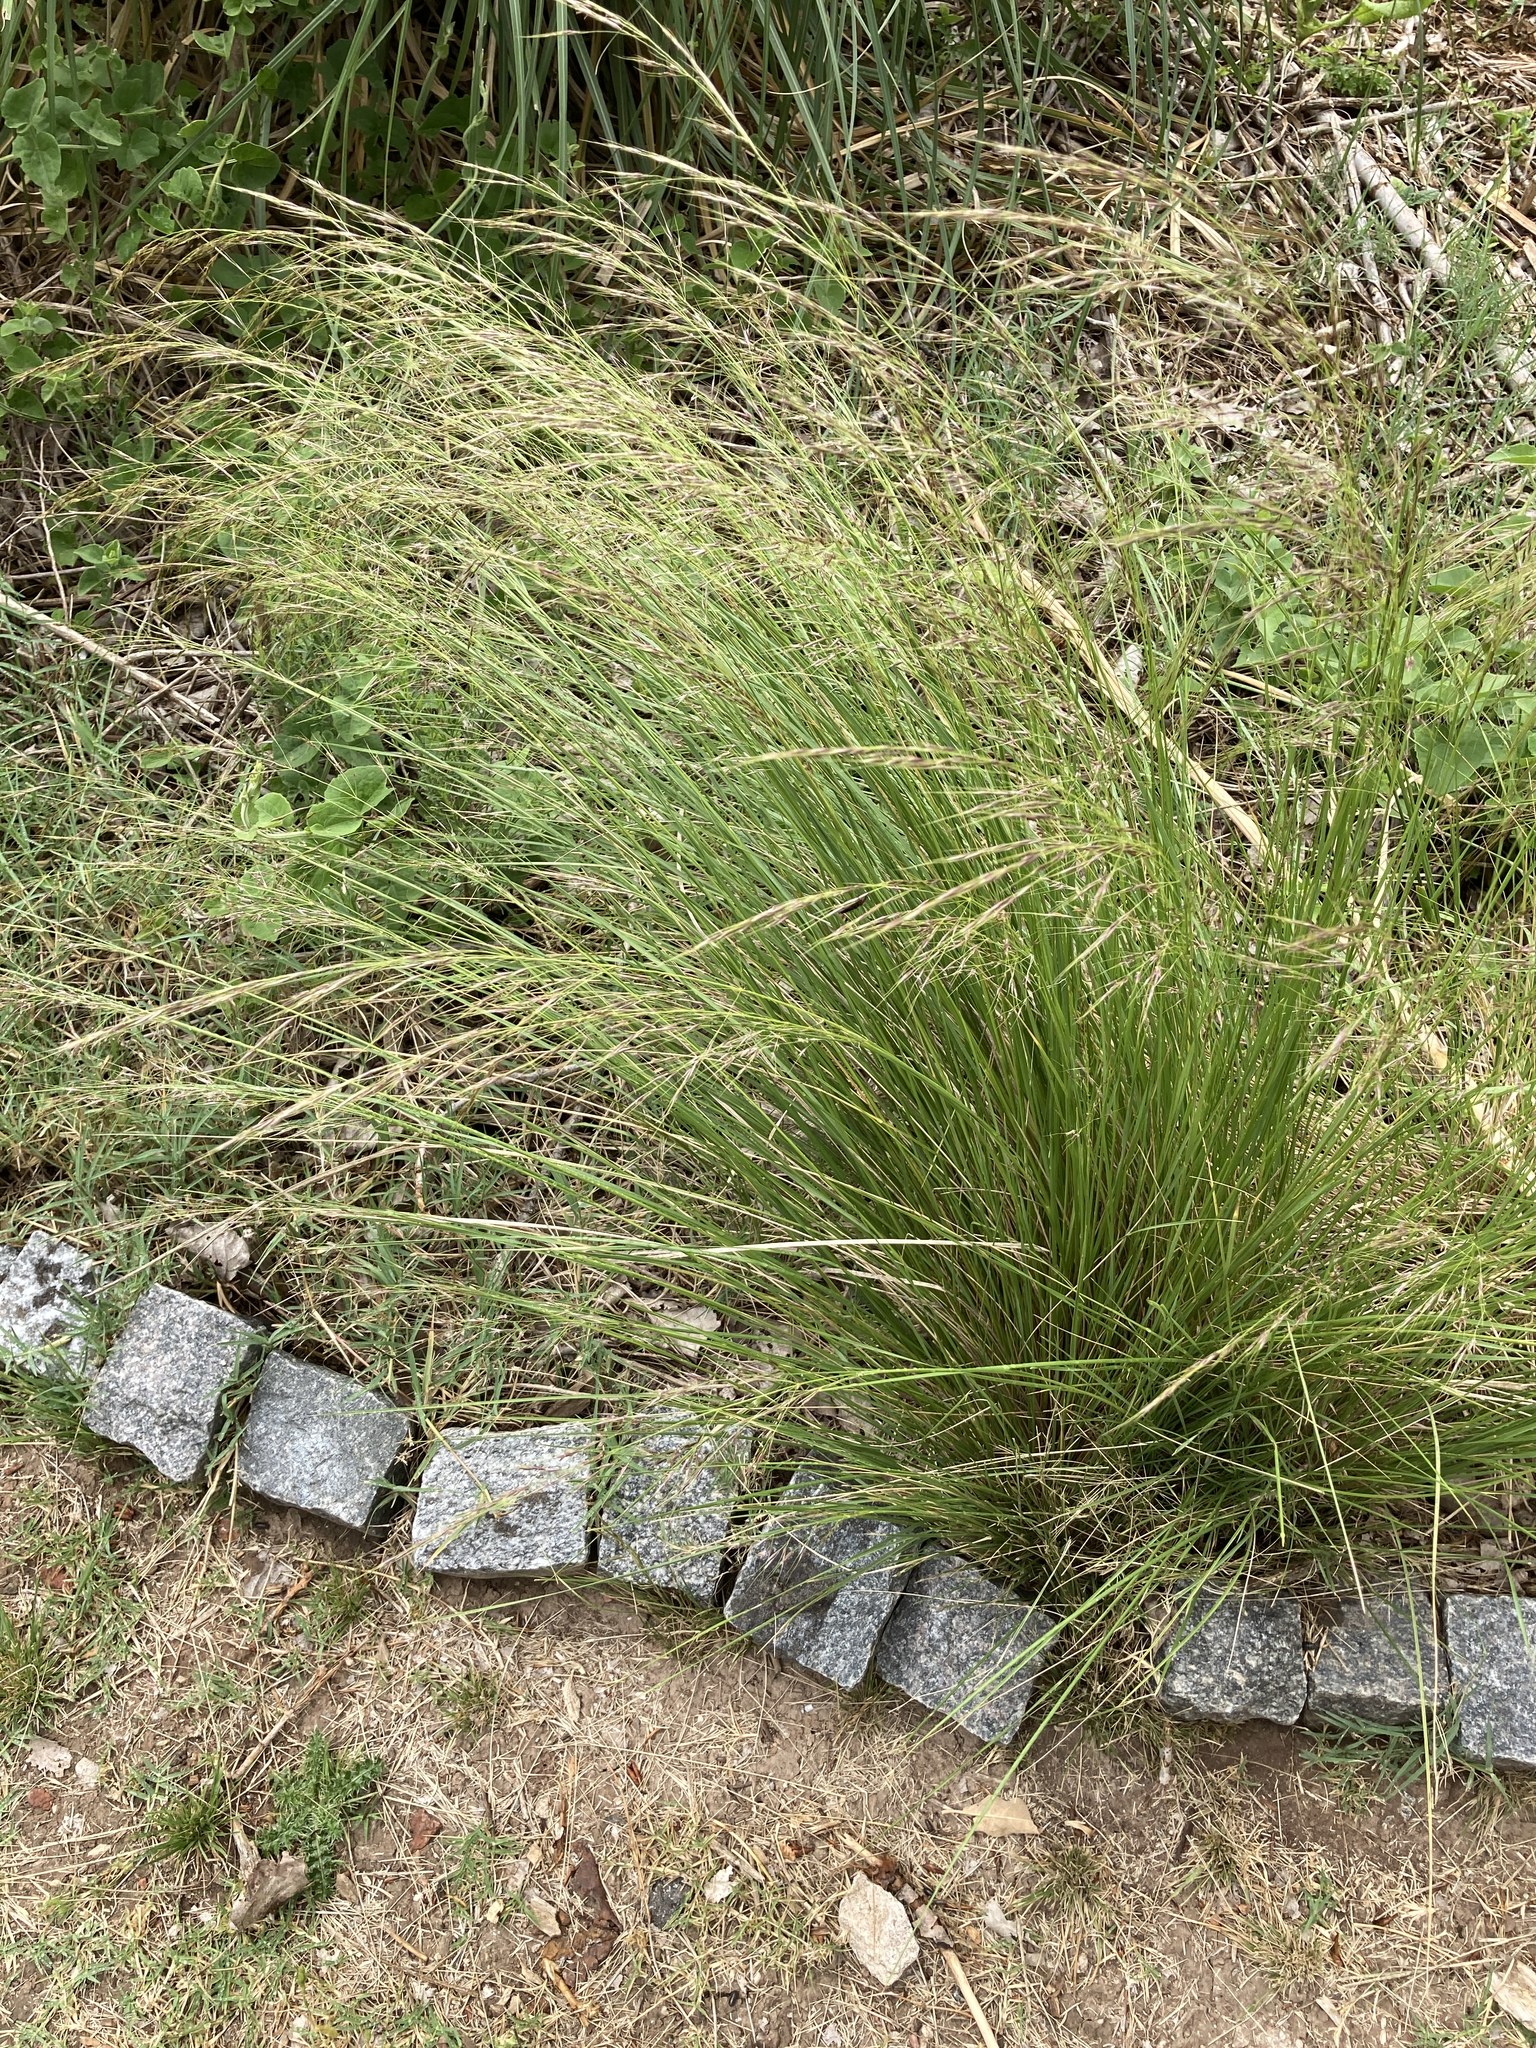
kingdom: Plantae
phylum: Tracheophyta
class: Liliopsida
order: Poales
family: Poaceae
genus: Amelichloa
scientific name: Amelichloa brachychaeta
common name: Shortbristled needlegrass
